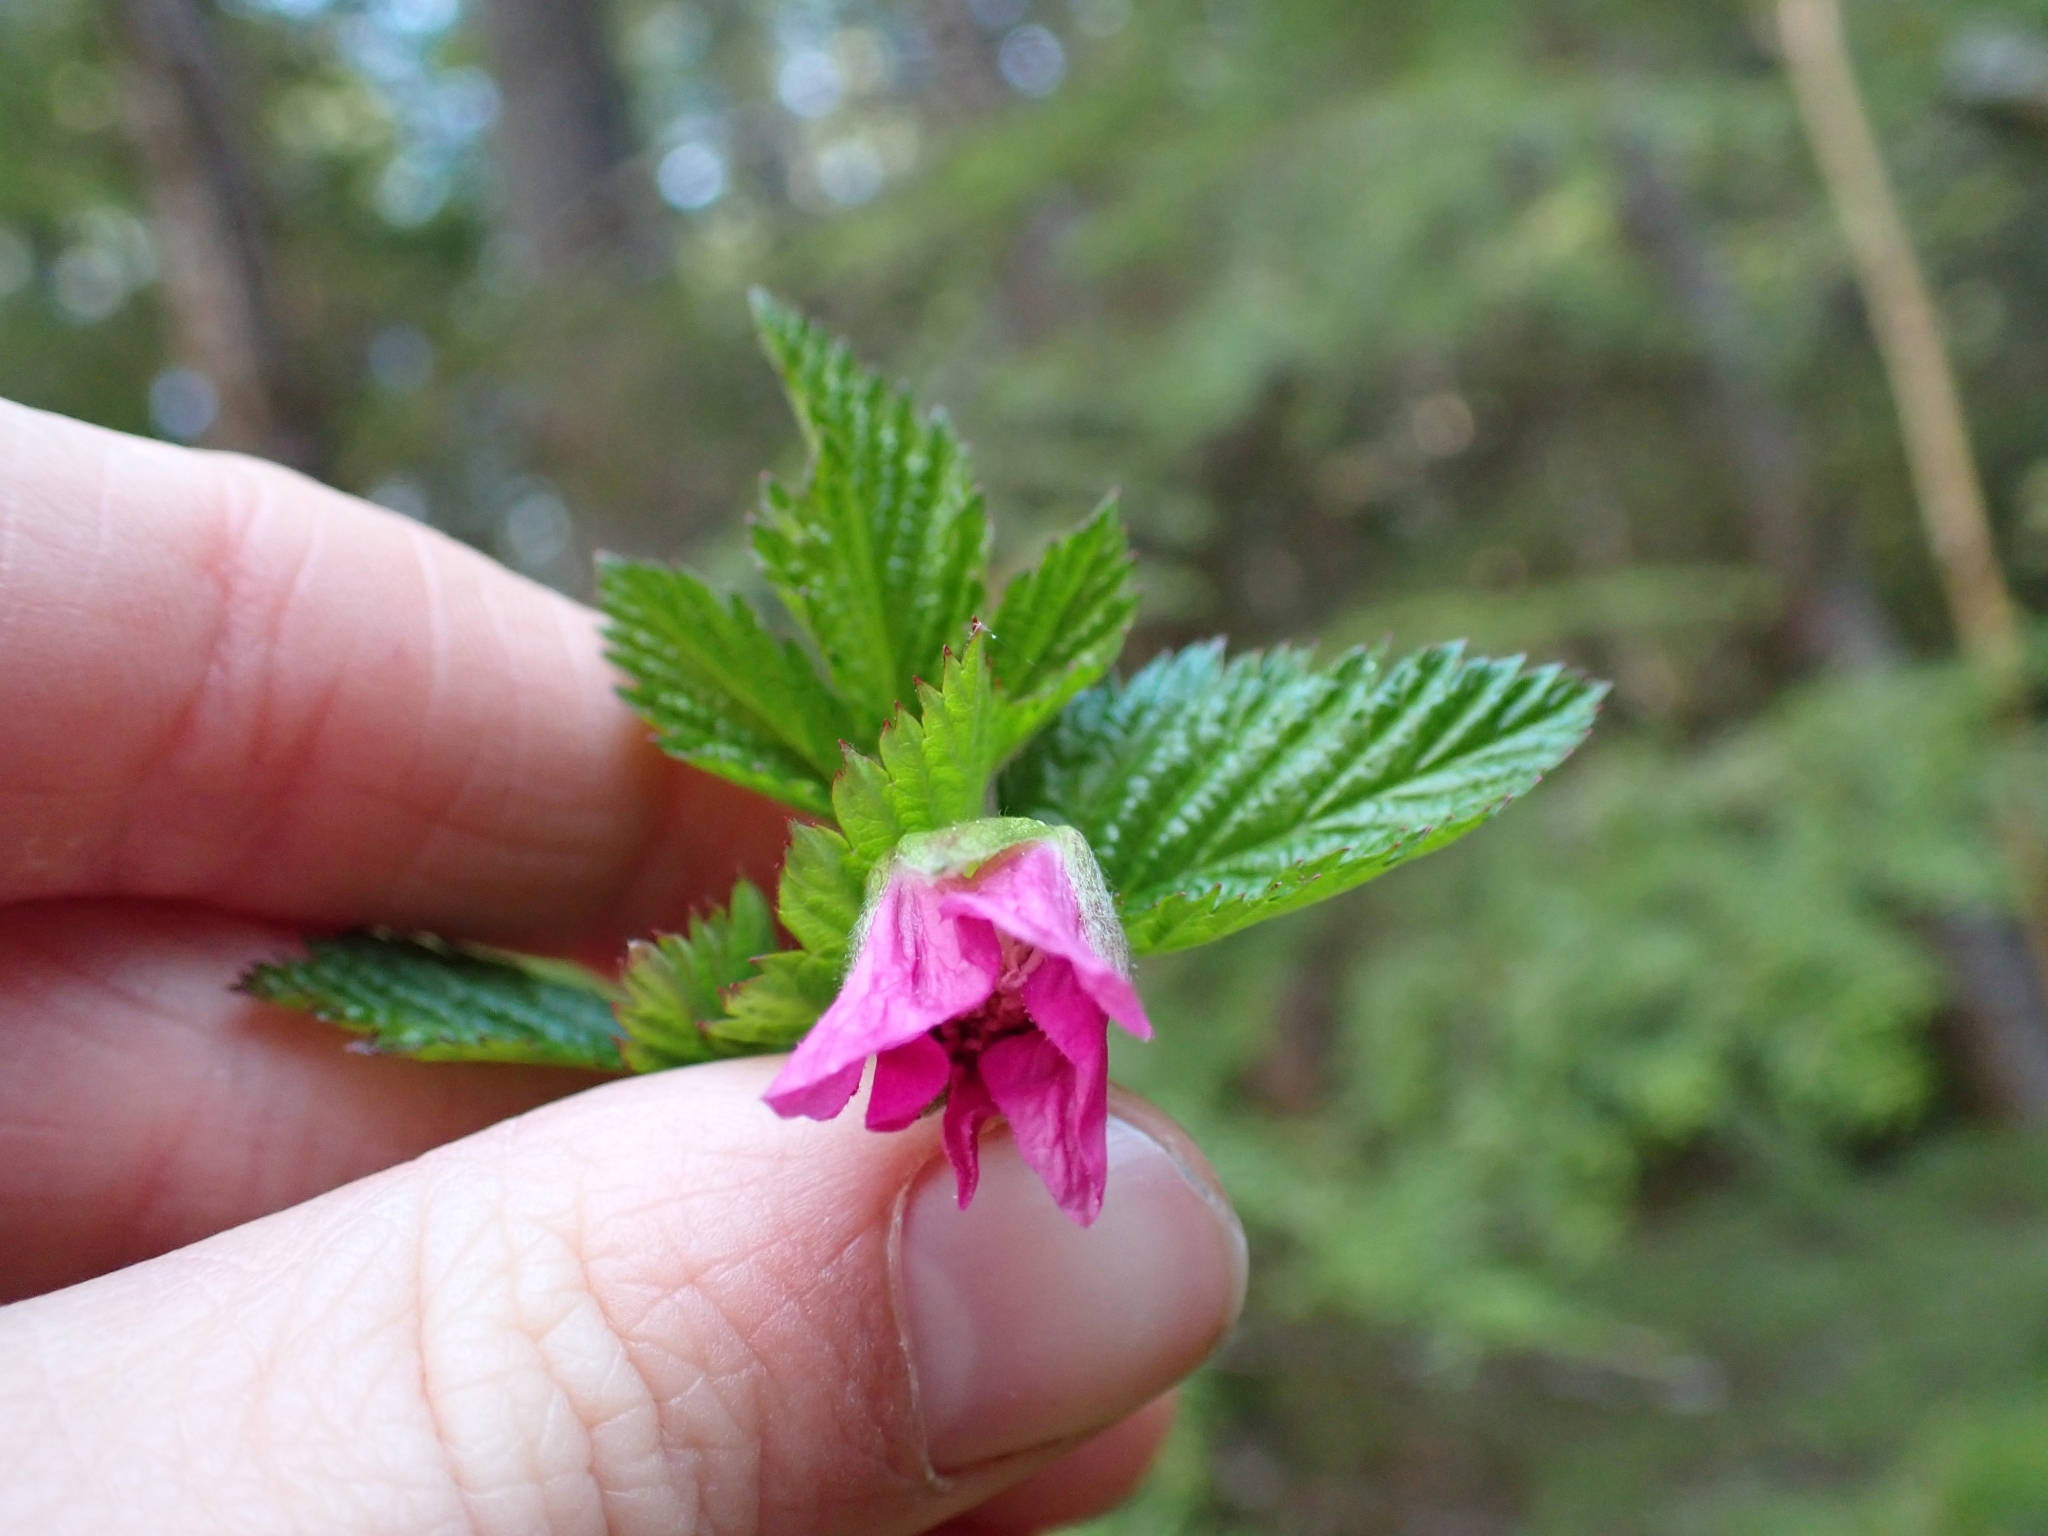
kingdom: Plantae
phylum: Tracheophyta
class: Magnoliopsida
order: Rosales
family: Rosaceae
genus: Rubus
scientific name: Rubus spectabilis
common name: Salmonberry
